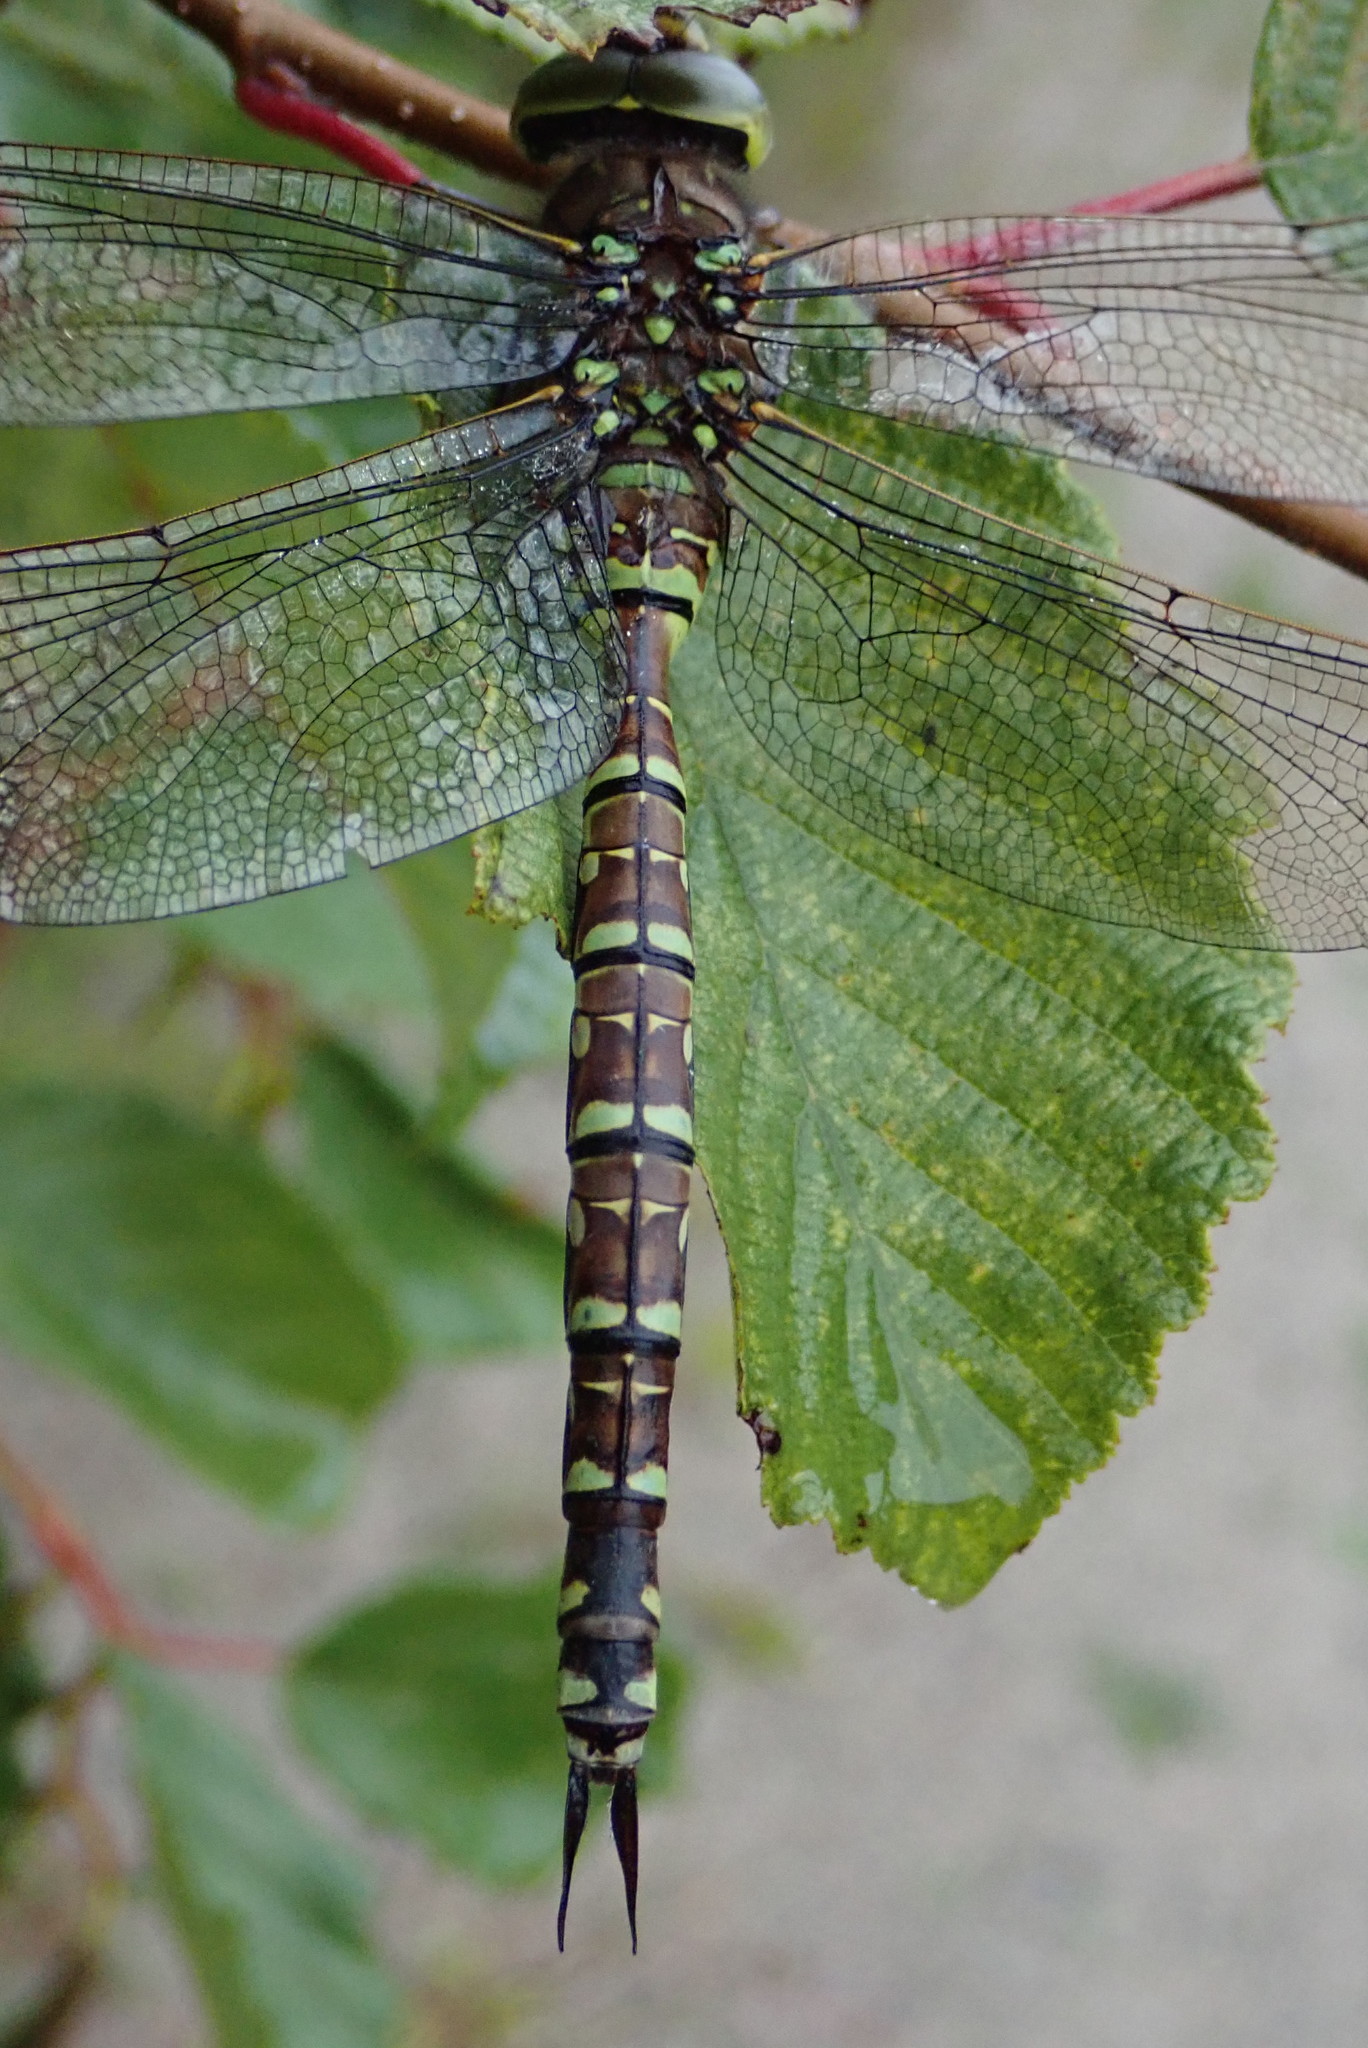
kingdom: Animalia
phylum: Arthropoda
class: Insecta
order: Odonata
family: Aeshnidae
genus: Aeshna
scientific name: Aeshna eremita
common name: Lake darner
